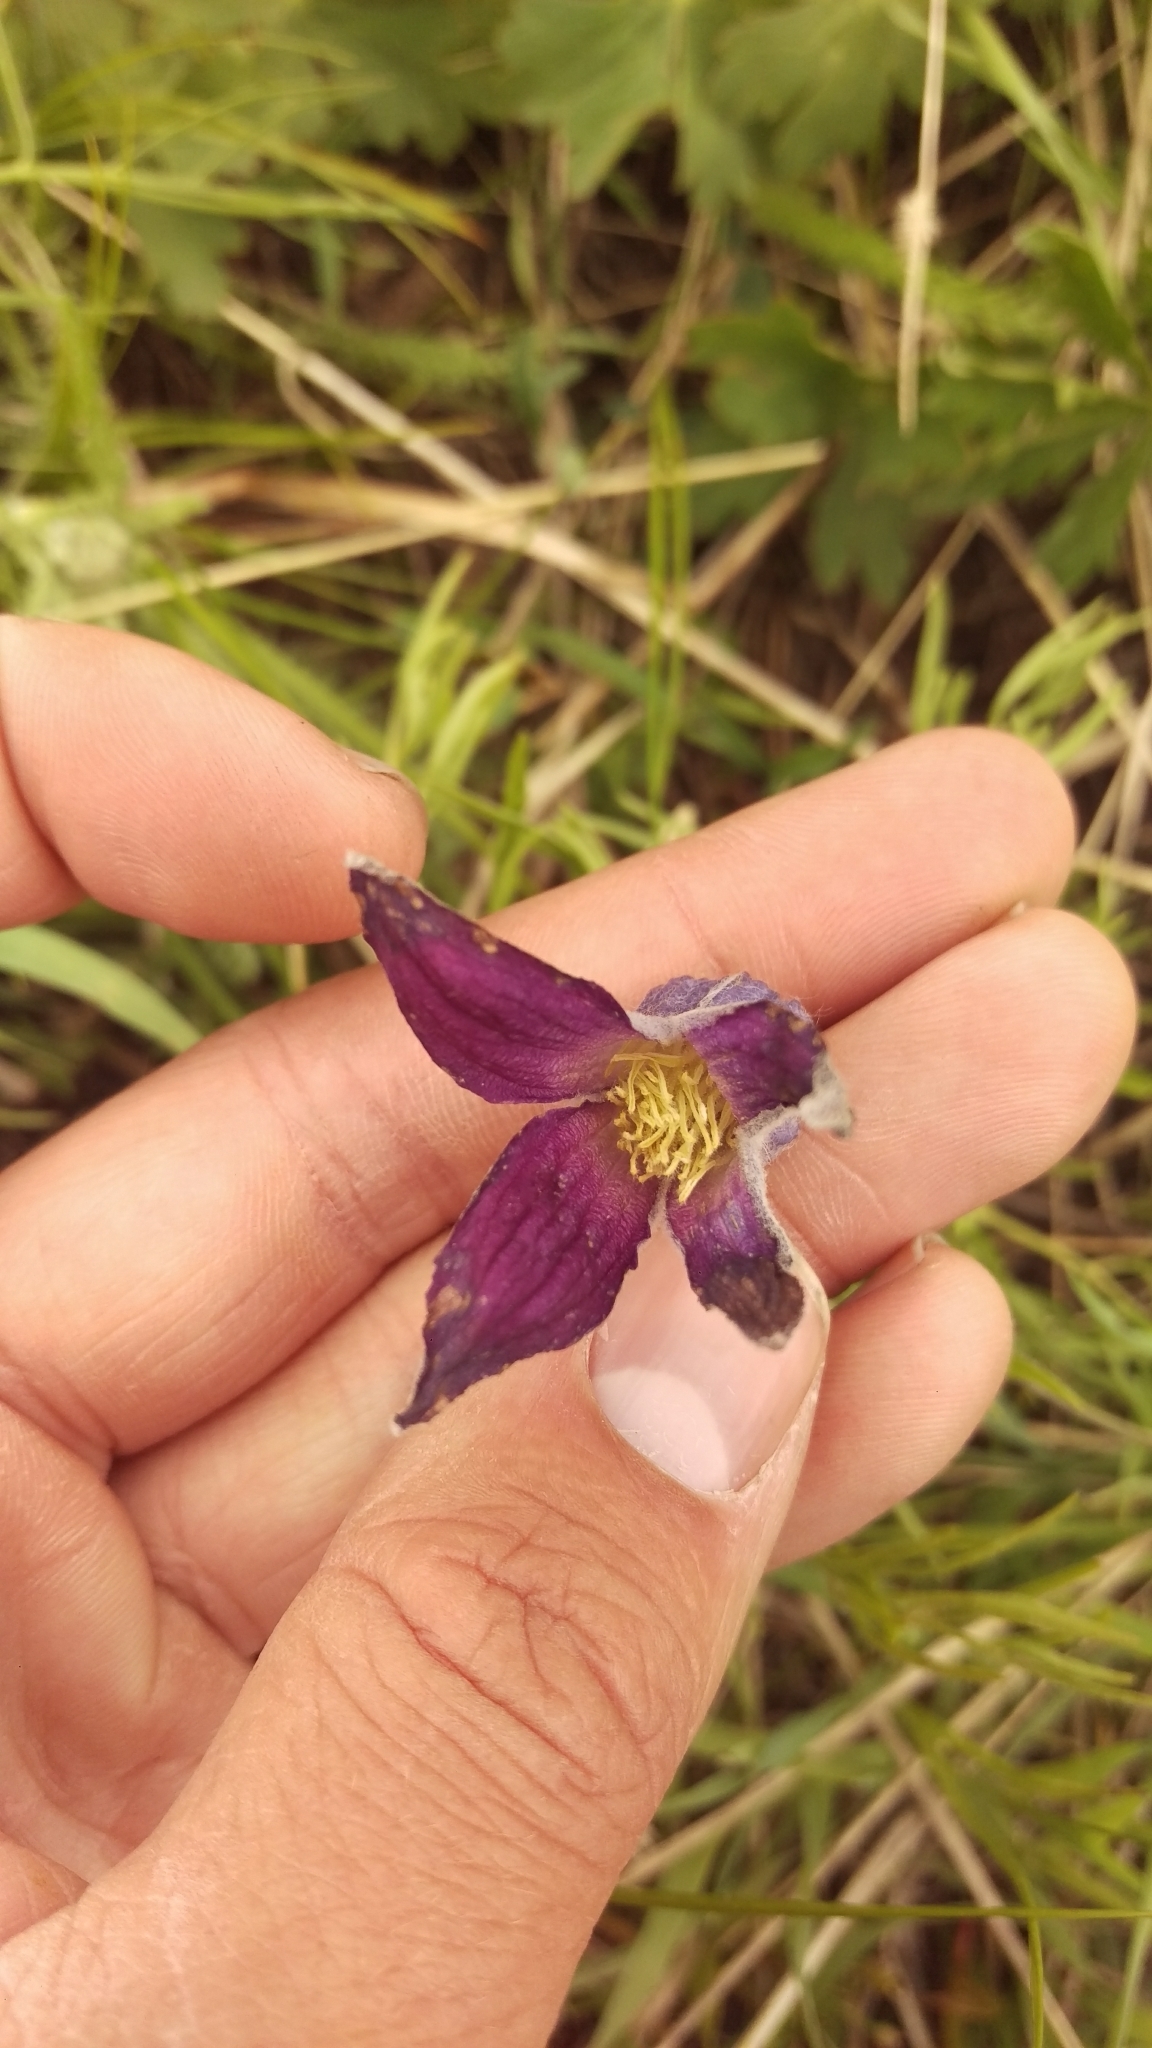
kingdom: Plantae
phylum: Tracheophyta
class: Magnoliopsida
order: Ranunculales
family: Ranunculaceae
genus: Clematis
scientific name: Clematis hirsutissima
